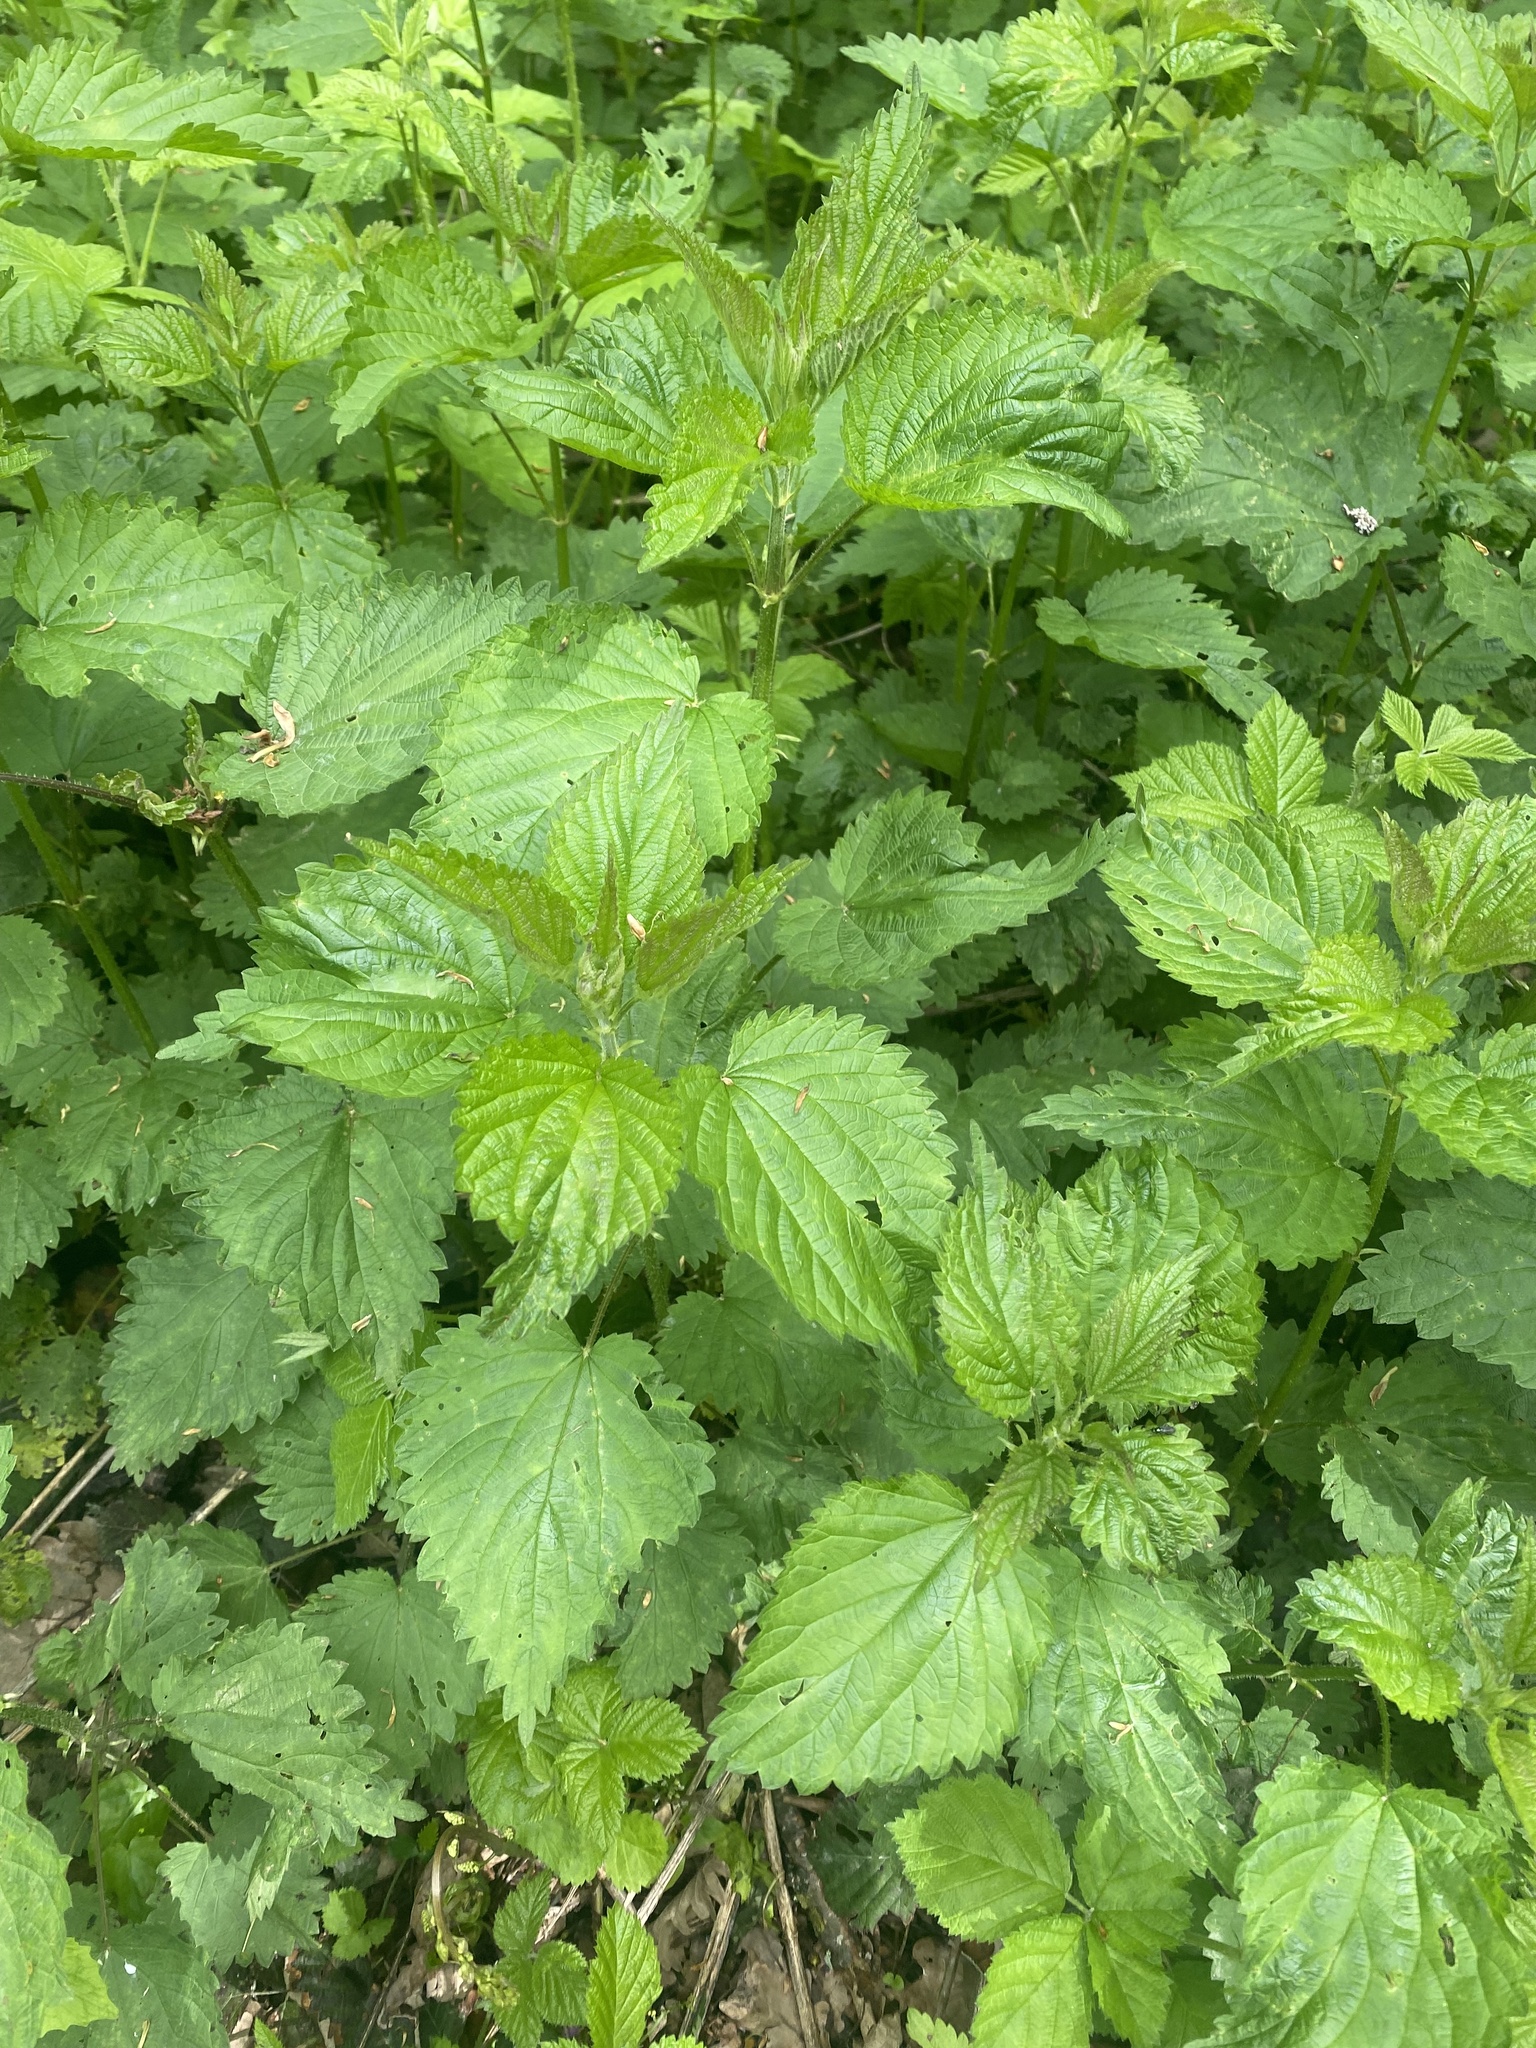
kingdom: Plantae
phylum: Tracheophyta
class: Magnoliopsida
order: Rosales
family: Urticaceae
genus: Urtica
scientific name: Urtica dioica
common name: Common nettle
